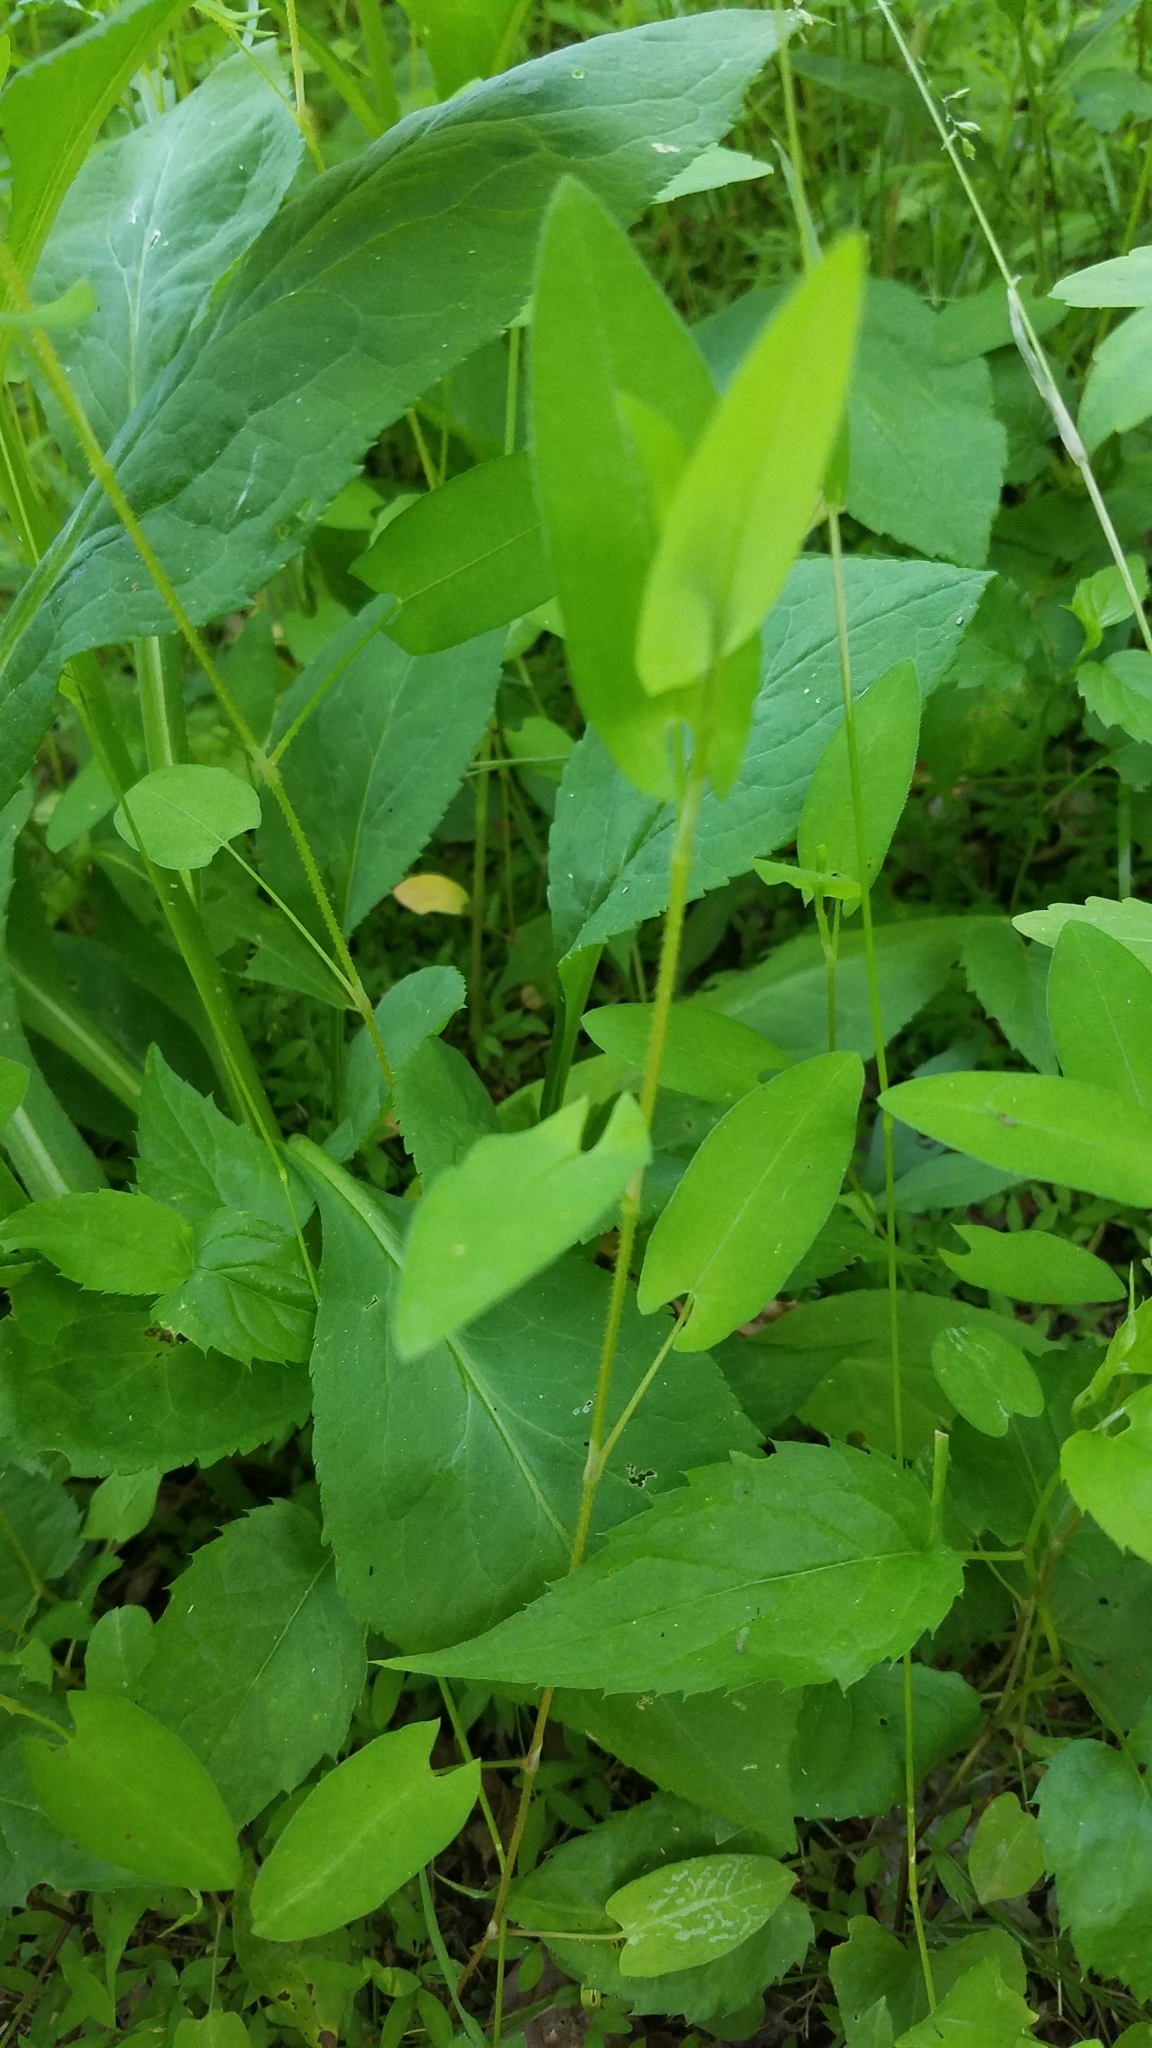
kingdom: Plantae
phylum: Tracheophyta
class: Magnoliopsida
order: Caryophyllales
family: Polygonaceae
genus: Persicaria
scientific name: Persicaria sagittata
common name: American tearthumb
